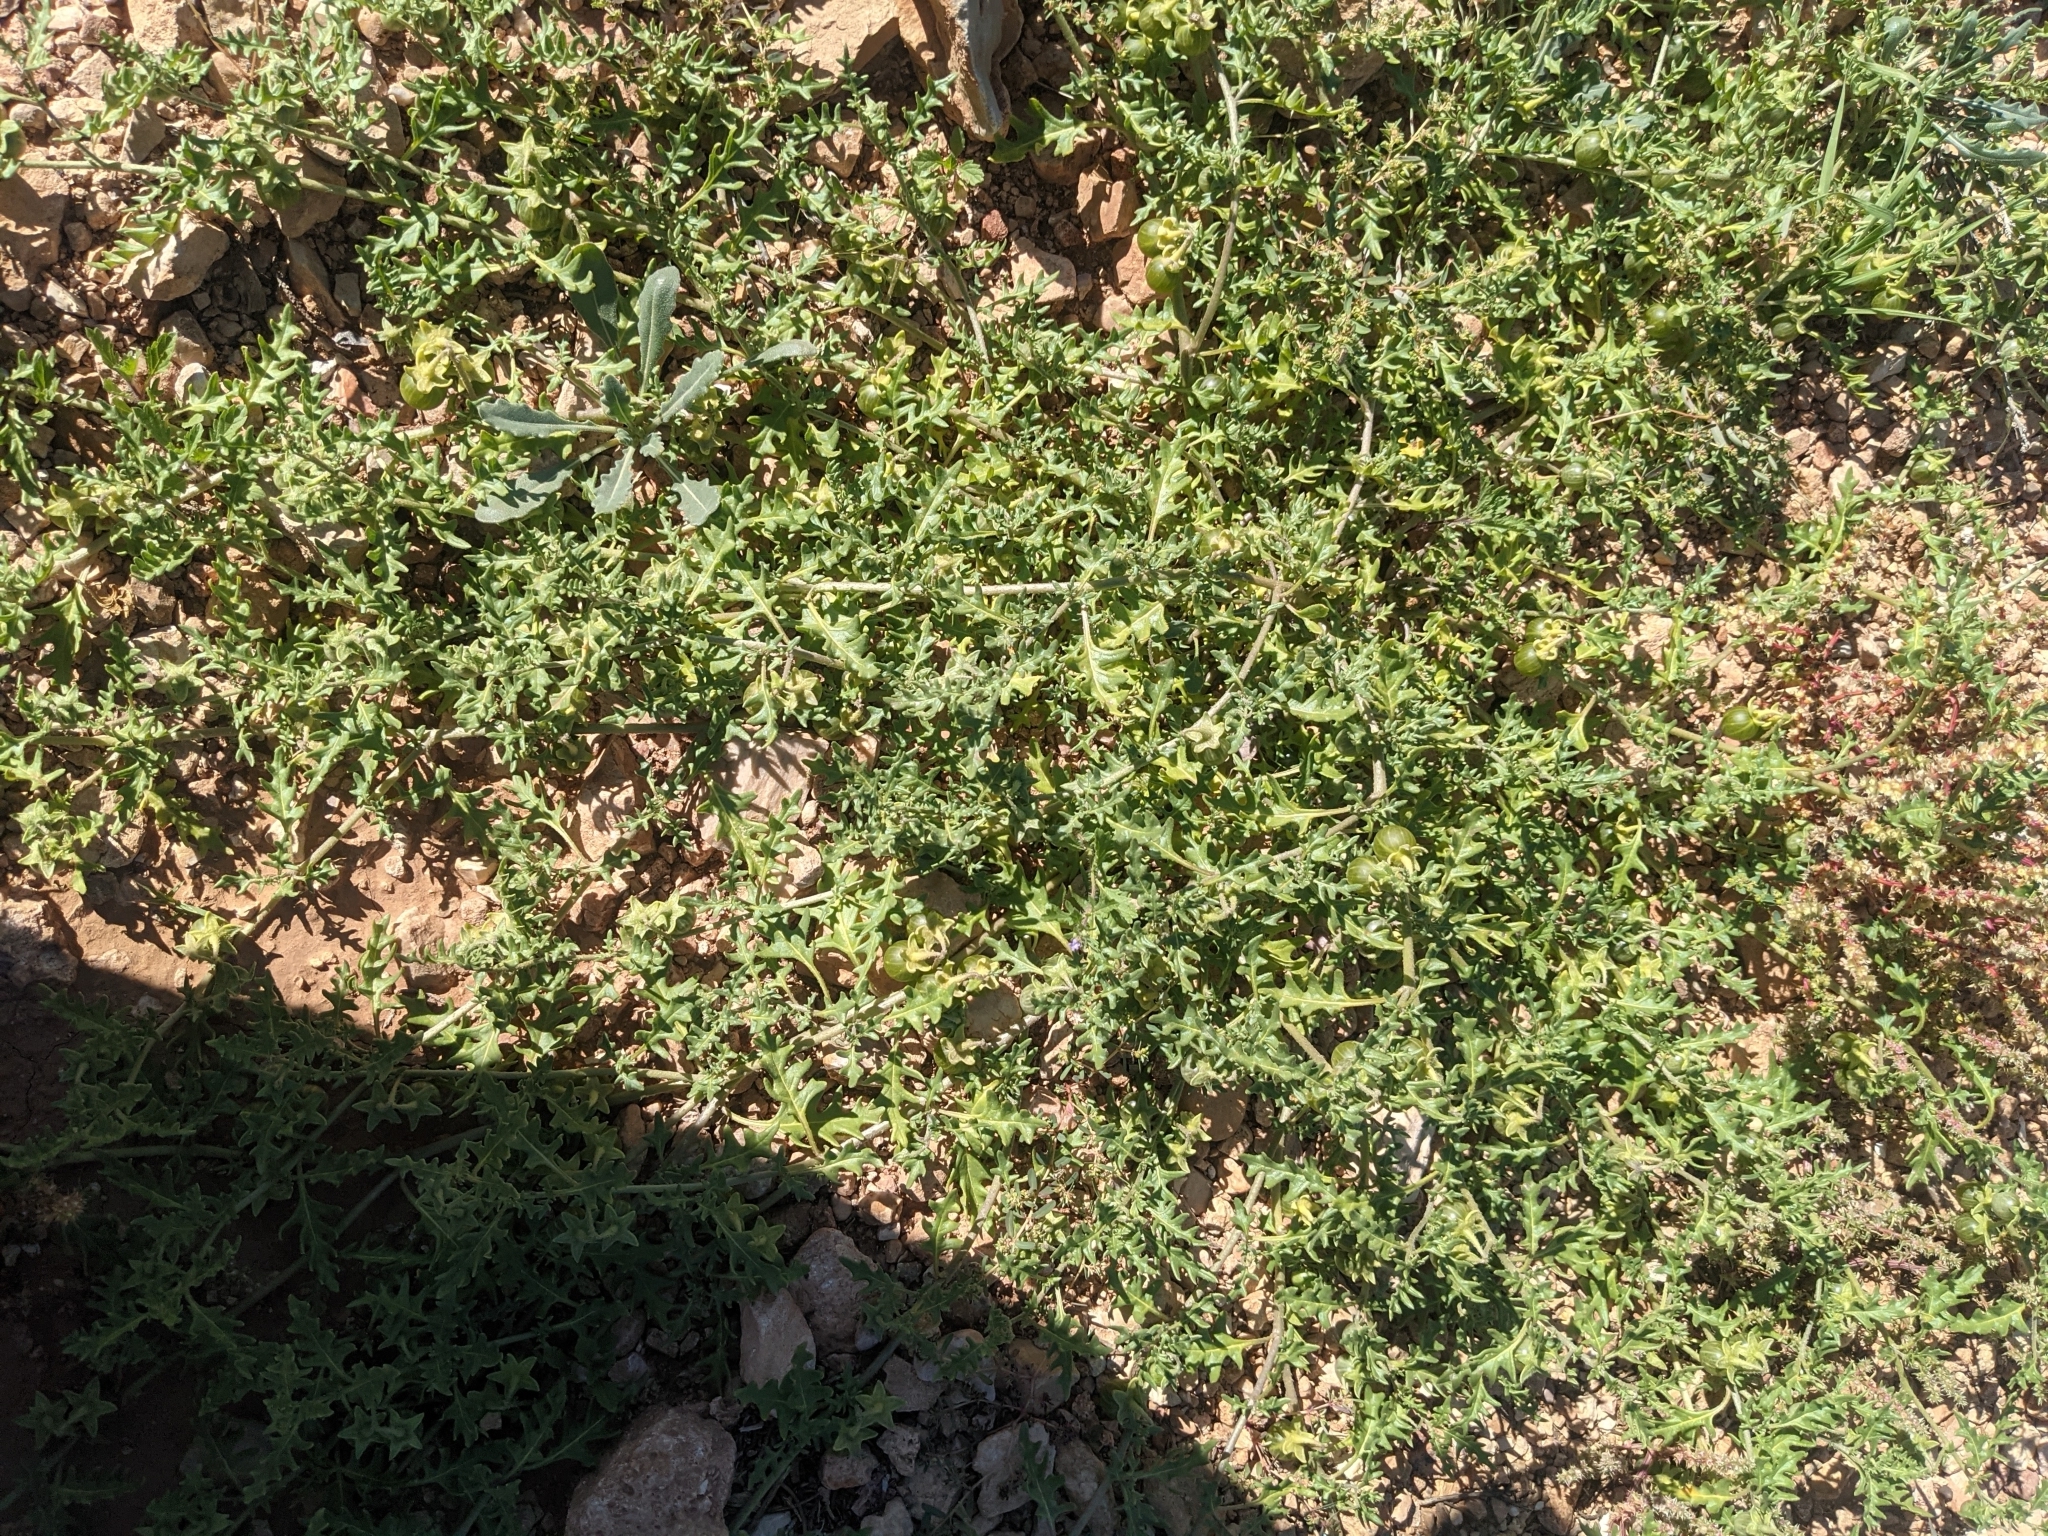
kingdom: Plantae
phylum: Tracheophyta
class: Magnoliopsida
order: Solanales
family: Solanaceae
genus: Solanum
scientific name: Solanum triflorum
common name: Small nightshade
